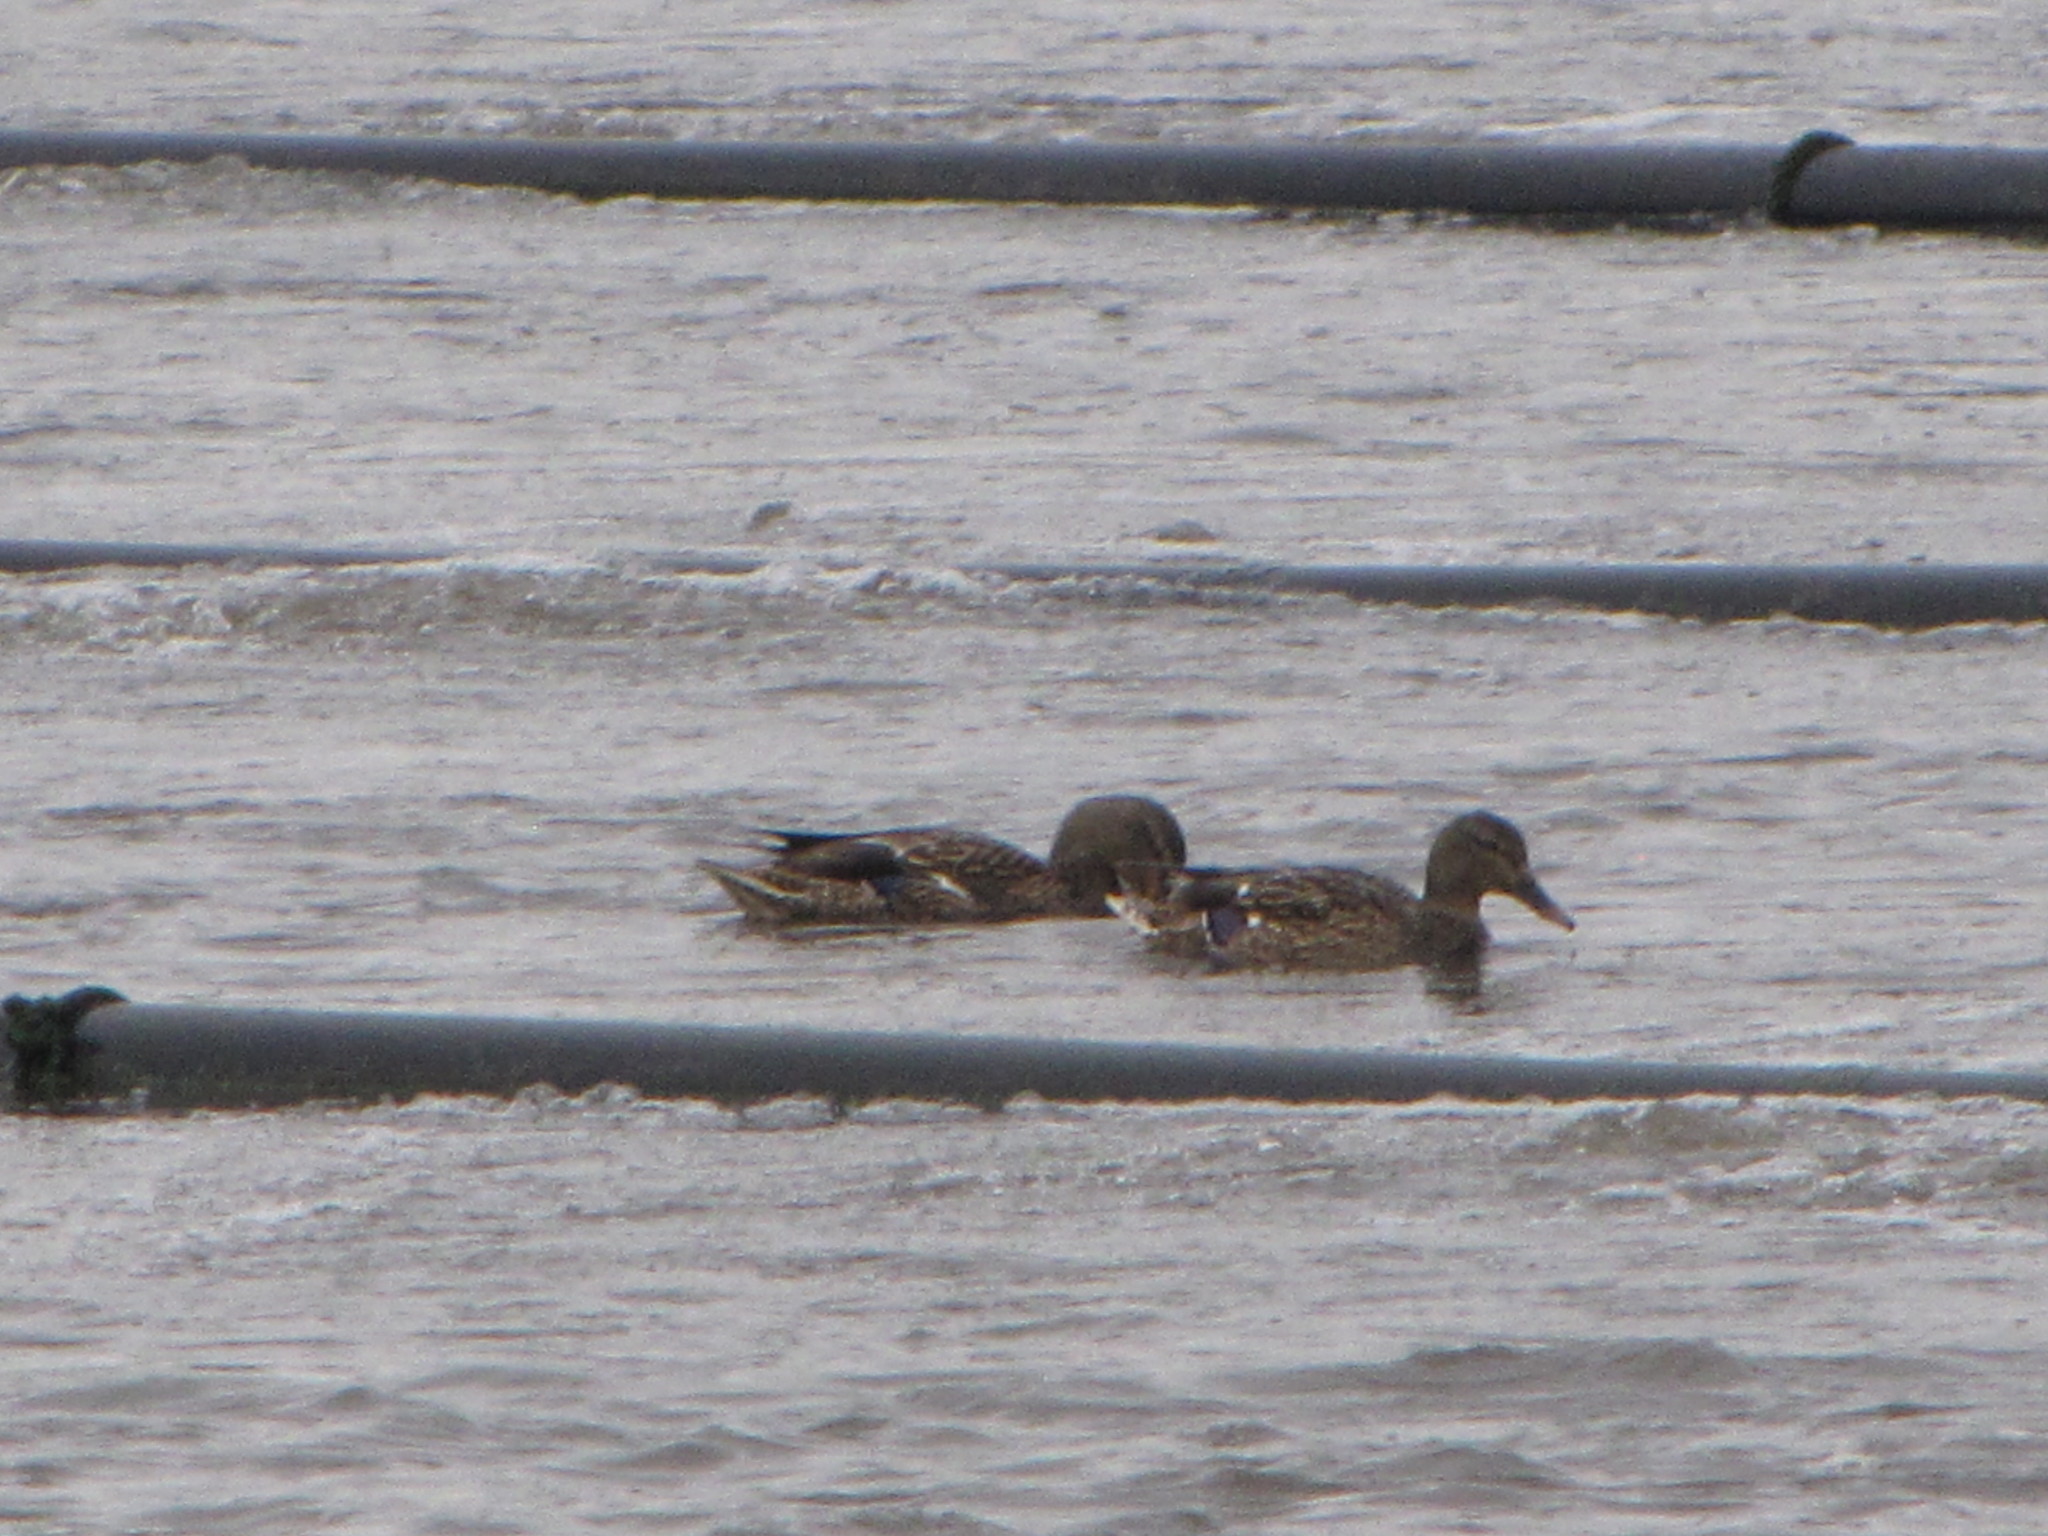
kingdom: Animalia
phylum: Chordata
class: Aves
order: Anseriformes
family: Anatidae
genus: Anas
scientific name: Anas platyrhynchos
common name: Mallard
